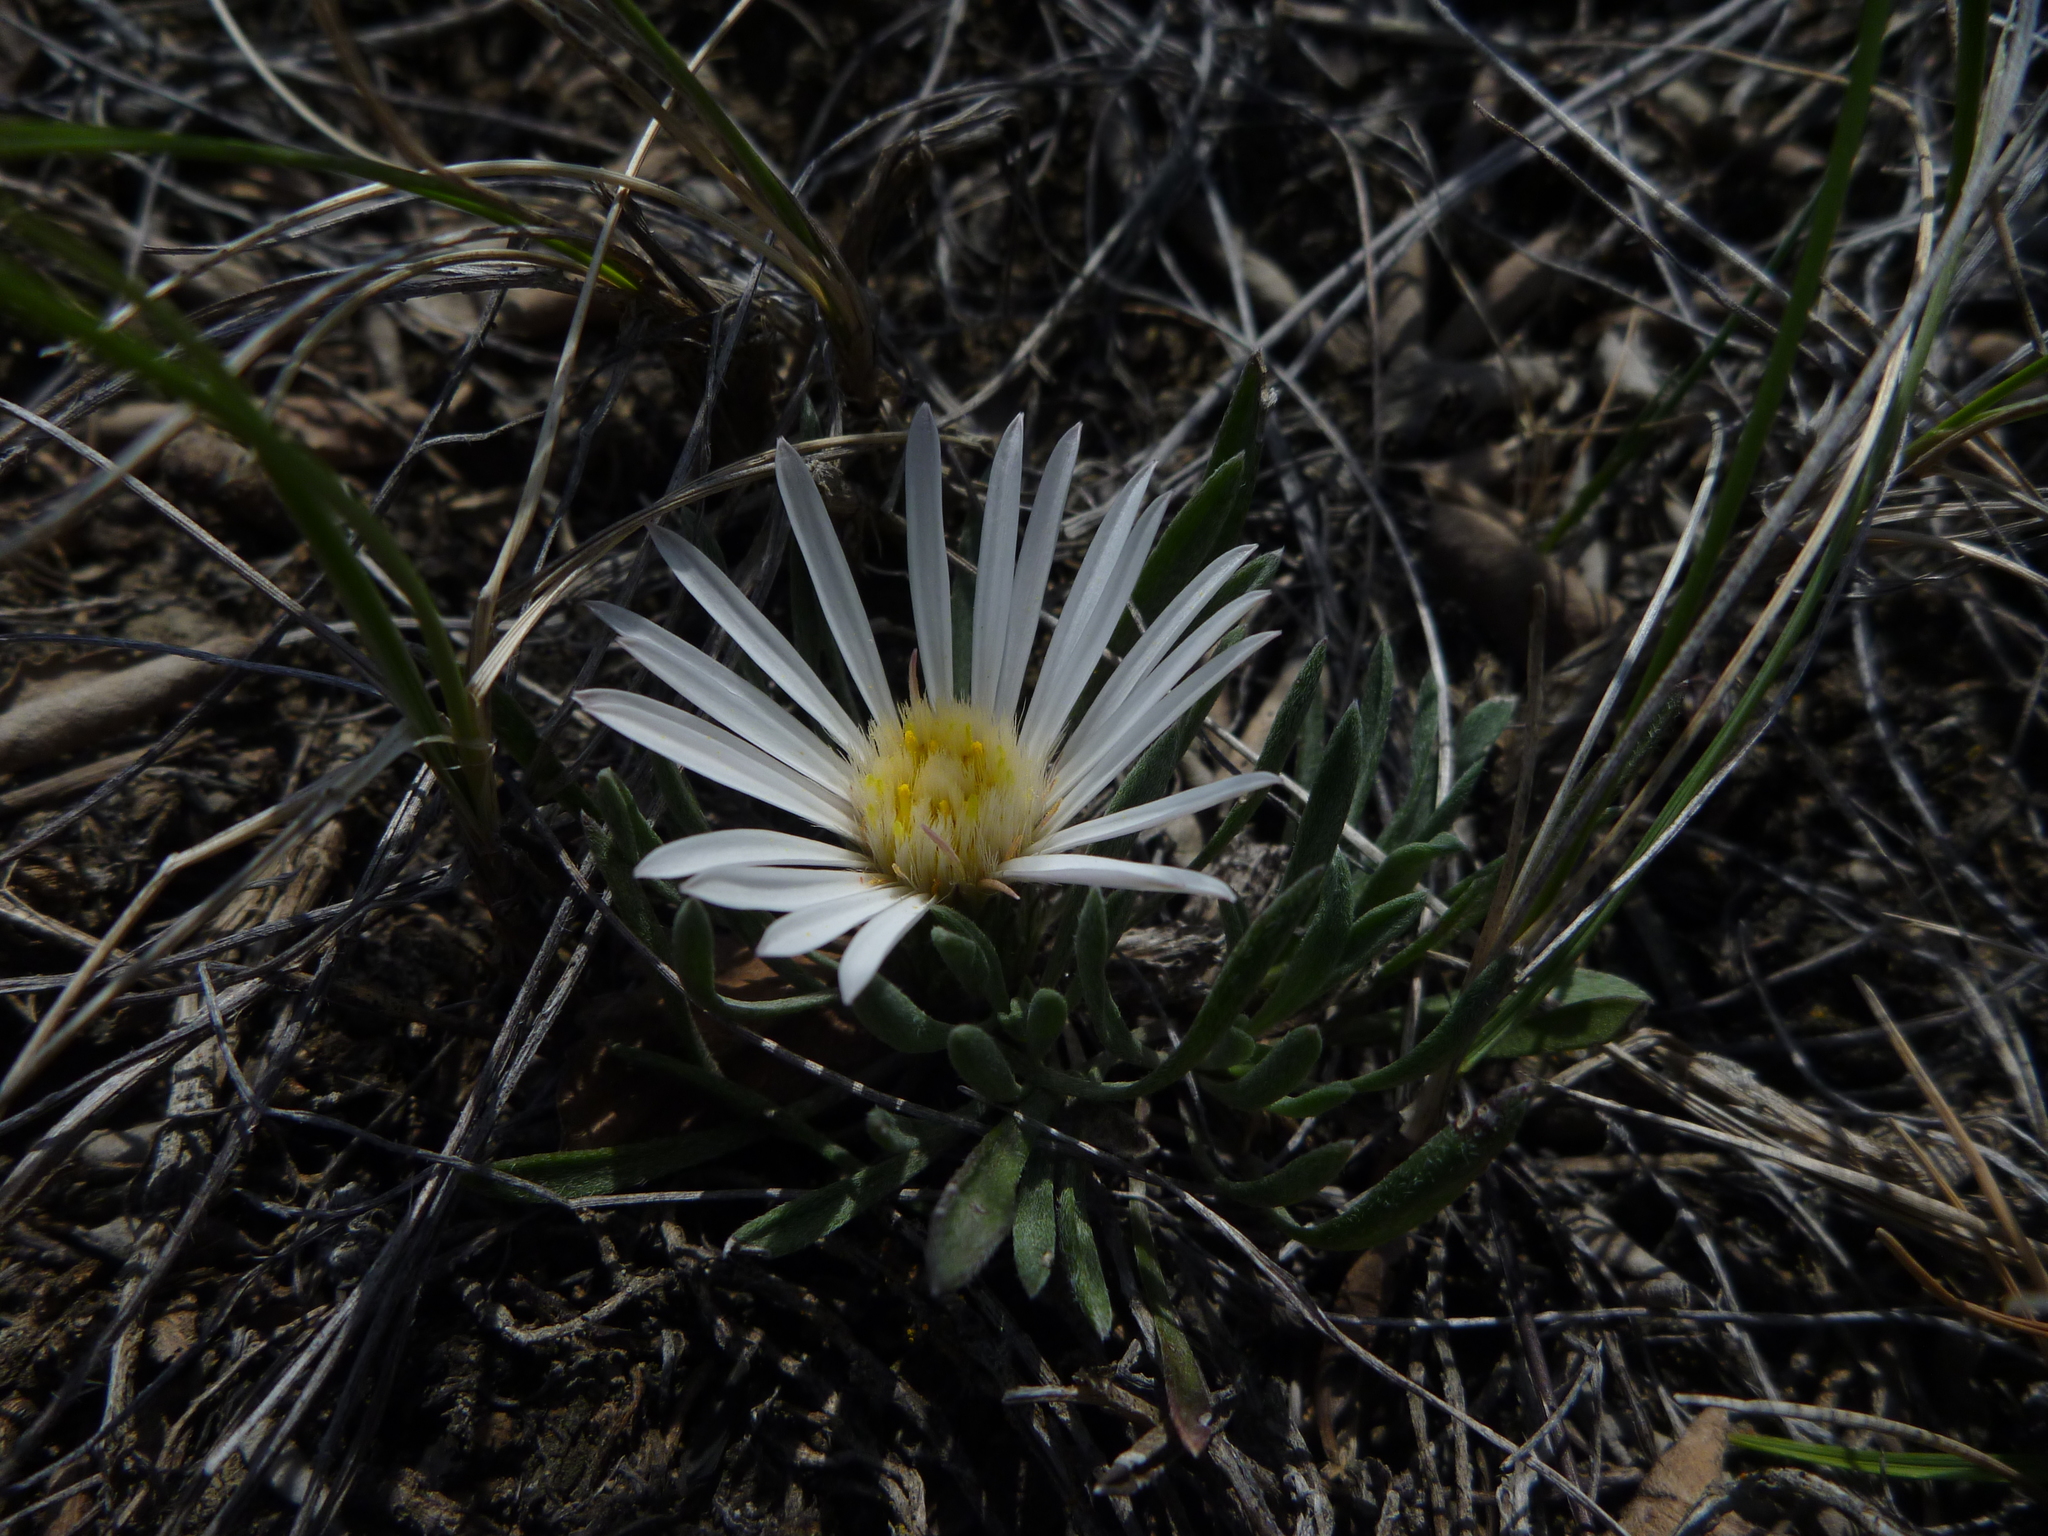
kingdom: Plantae
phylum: Tracheophyta
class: Magnoliopsida
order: Asterales
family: Asteraceae
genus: Townsendia
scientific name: Townsendia exscapa
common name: Dwarf townsendia
